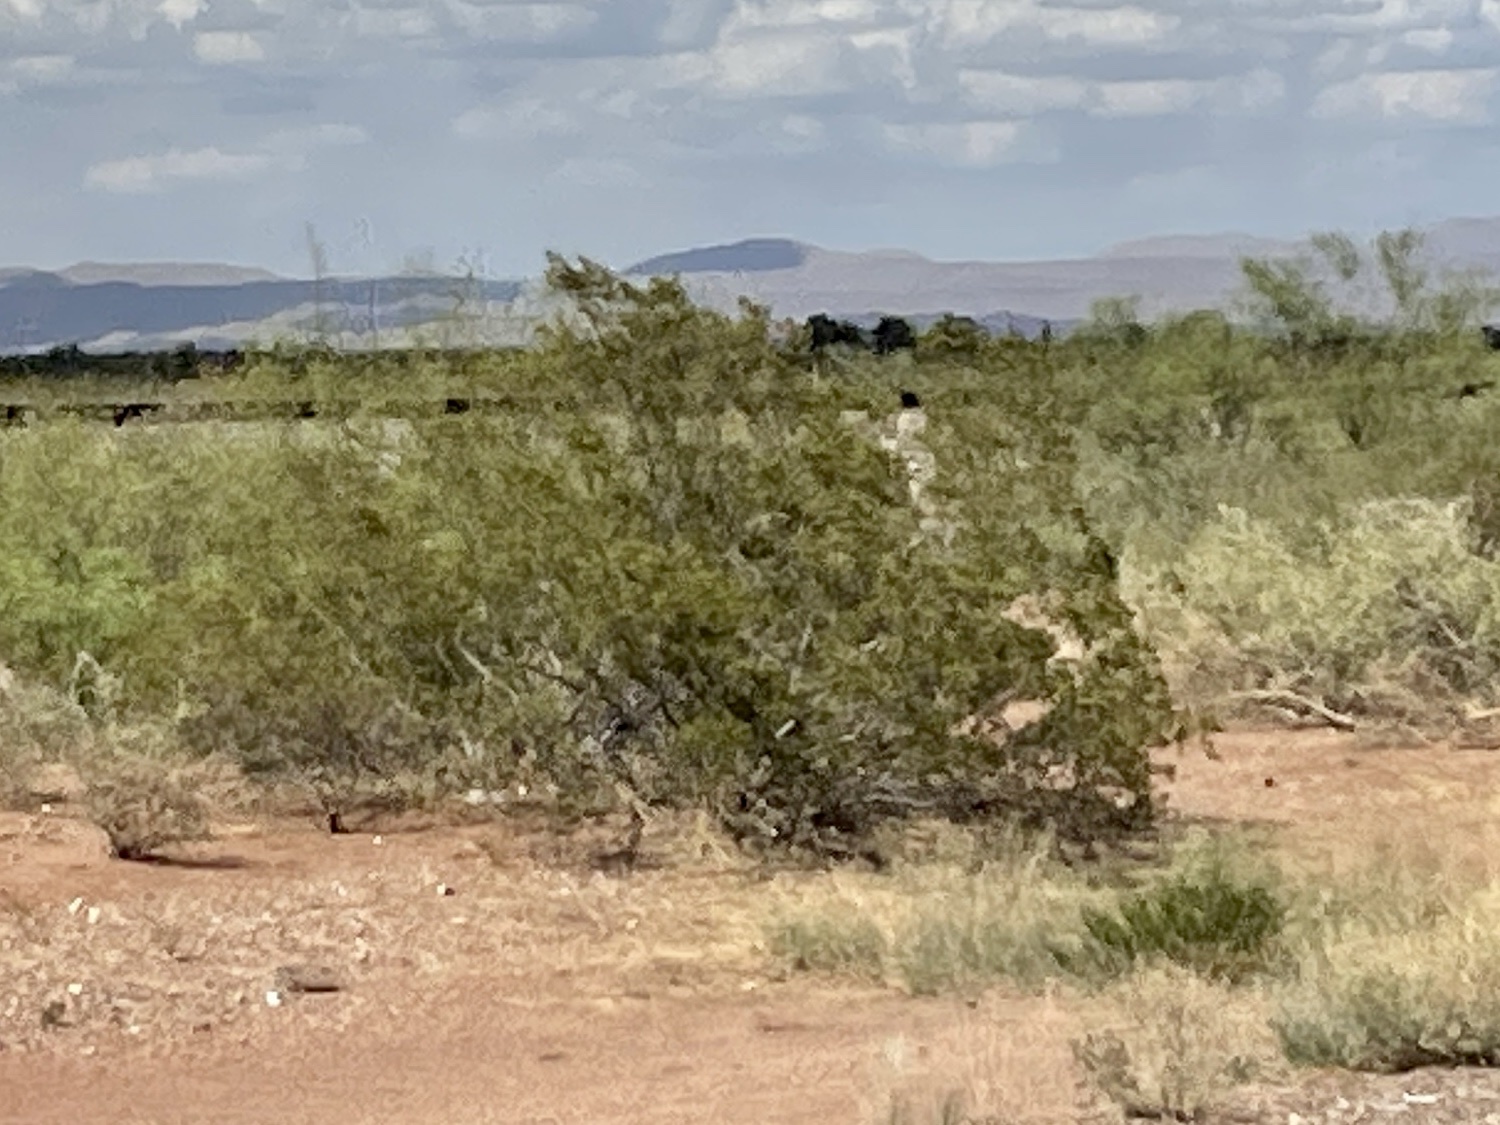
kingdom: Plantae
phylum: Tracheophyta
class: Magnoliopsida
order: Zygophyllales
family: Zygophyllaceae
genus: Larrea
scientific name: Larrea tridentata
